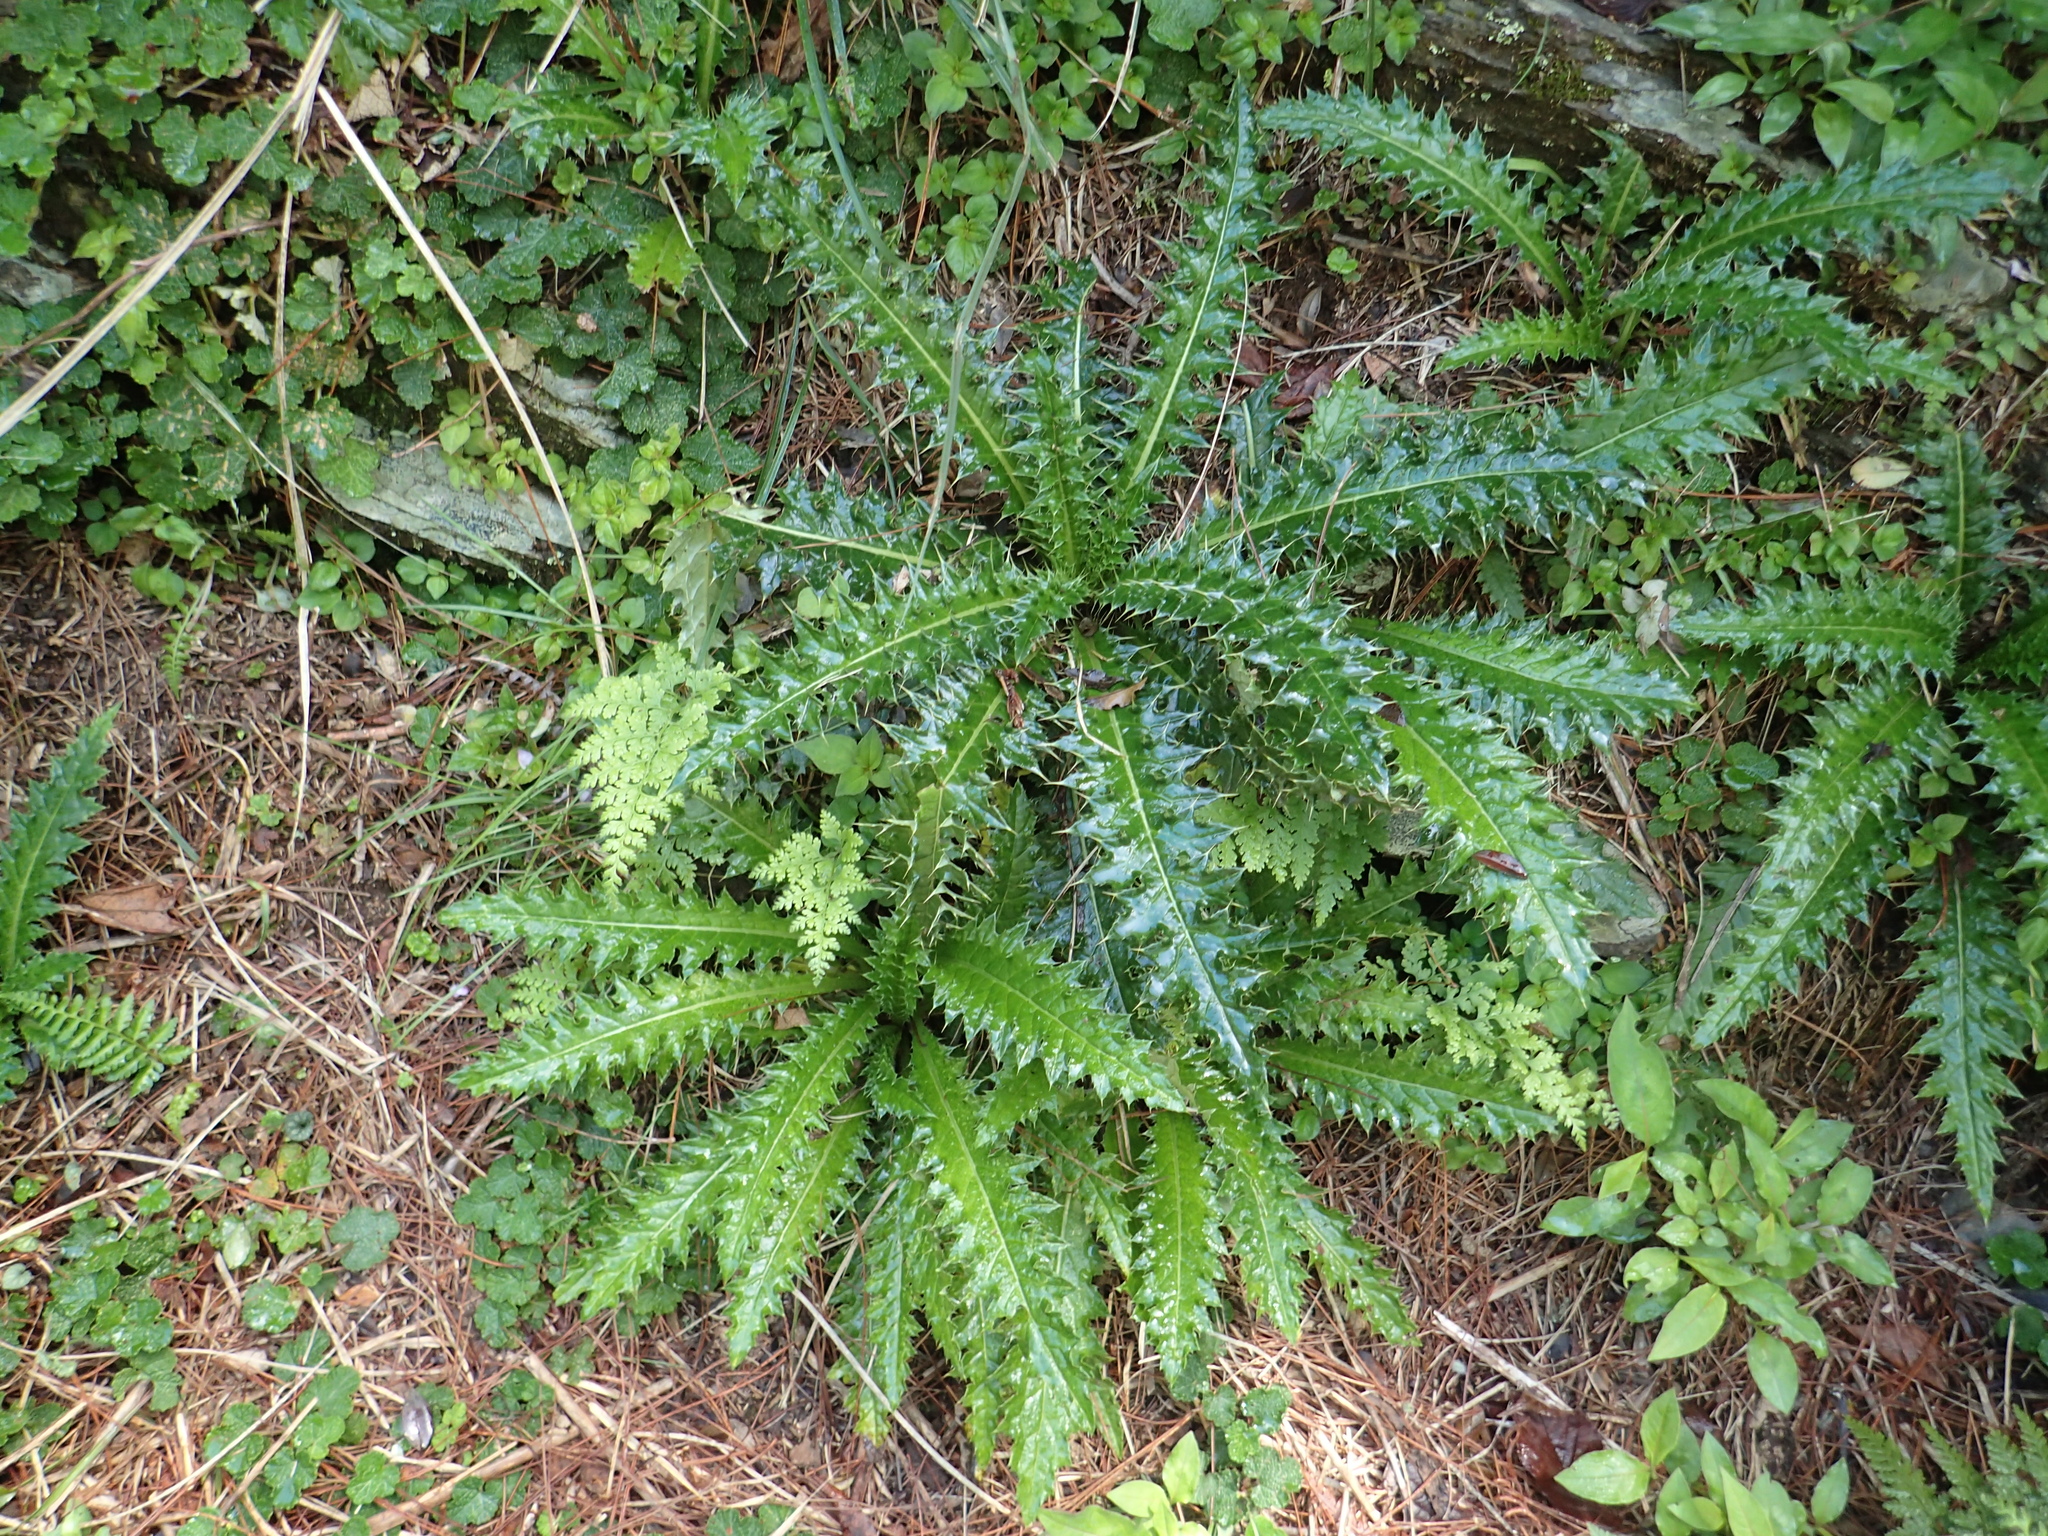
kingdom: Plantae
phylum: Tracheophyta
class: Magnoliopsida
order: Asterales
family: Asteraceae
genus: Cirsium
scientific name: Cirsium arisanense
